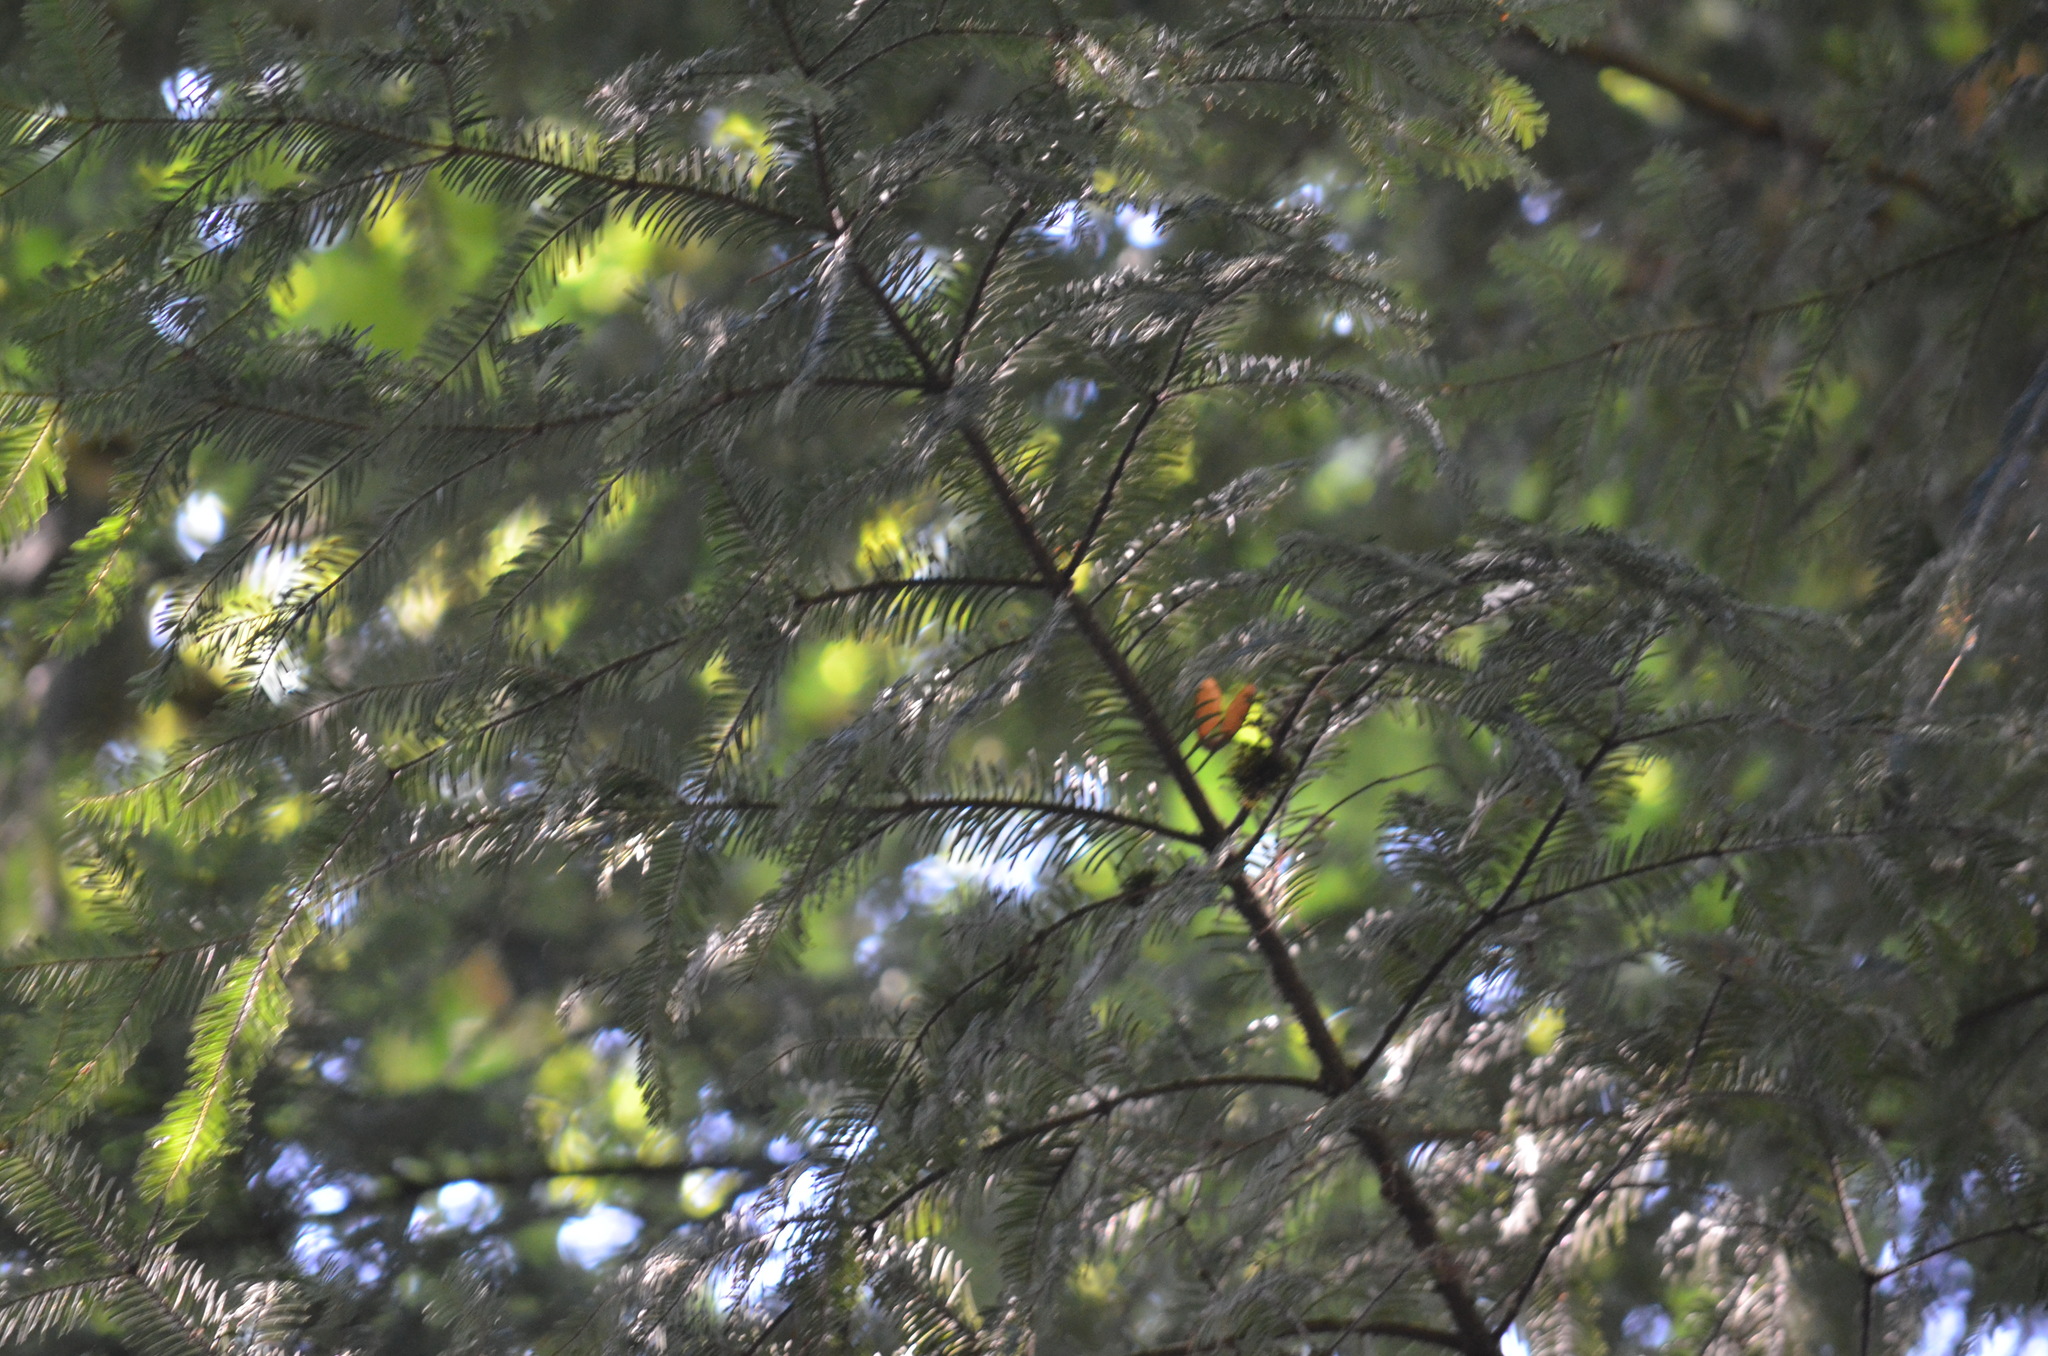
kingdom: Plantae
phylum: Tracheophyta
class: Pinopsida
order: Pinales
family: Pinaceae
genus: Abies
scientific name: Abies grandis
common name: Giant fir
